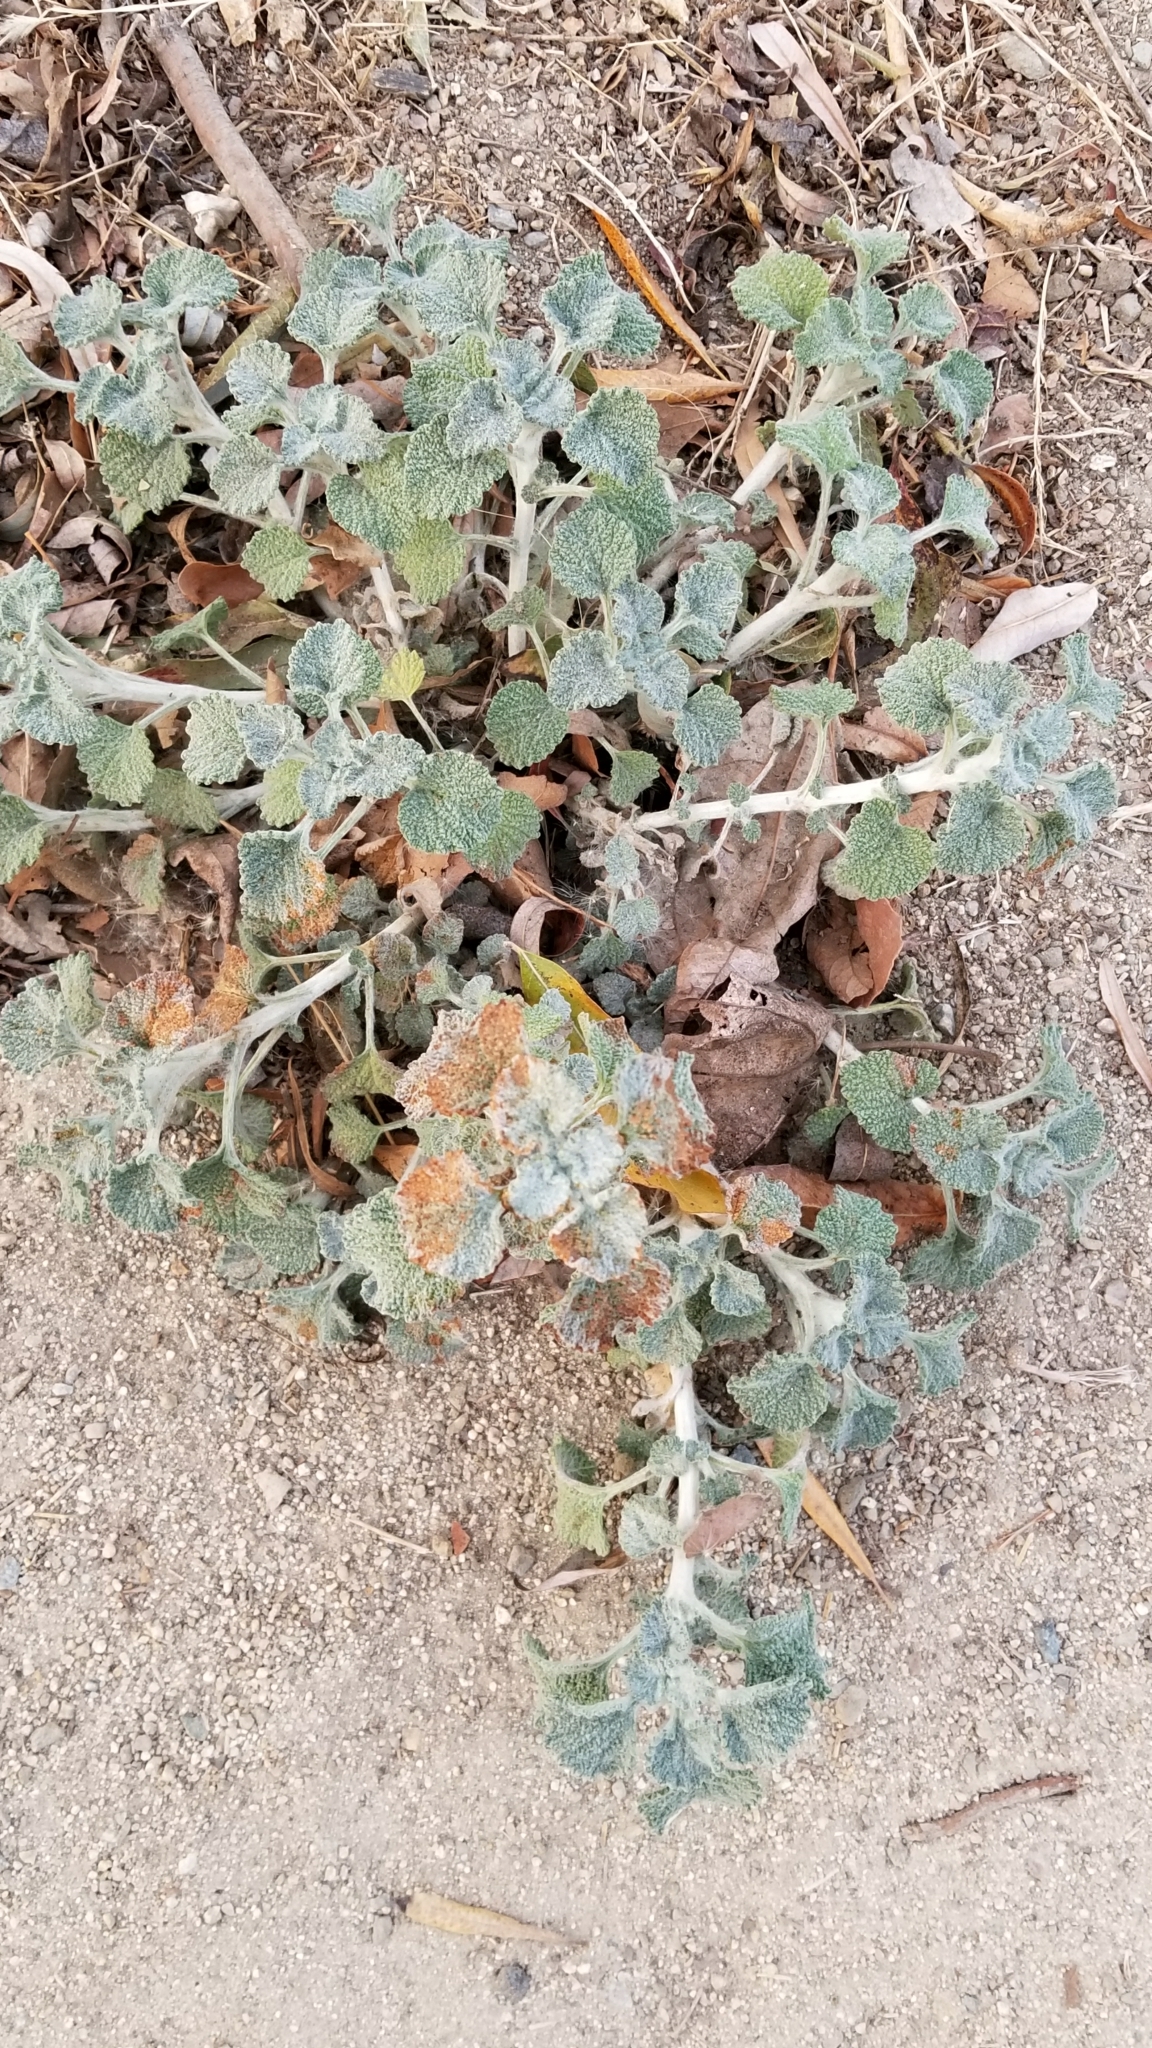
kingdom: Plantae
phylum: Tracheophyta
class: Magnoliopsida
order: Lamiales
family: Lamiaceae
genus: Marrubium
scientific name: Marrubium vulgare
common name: Horehound
